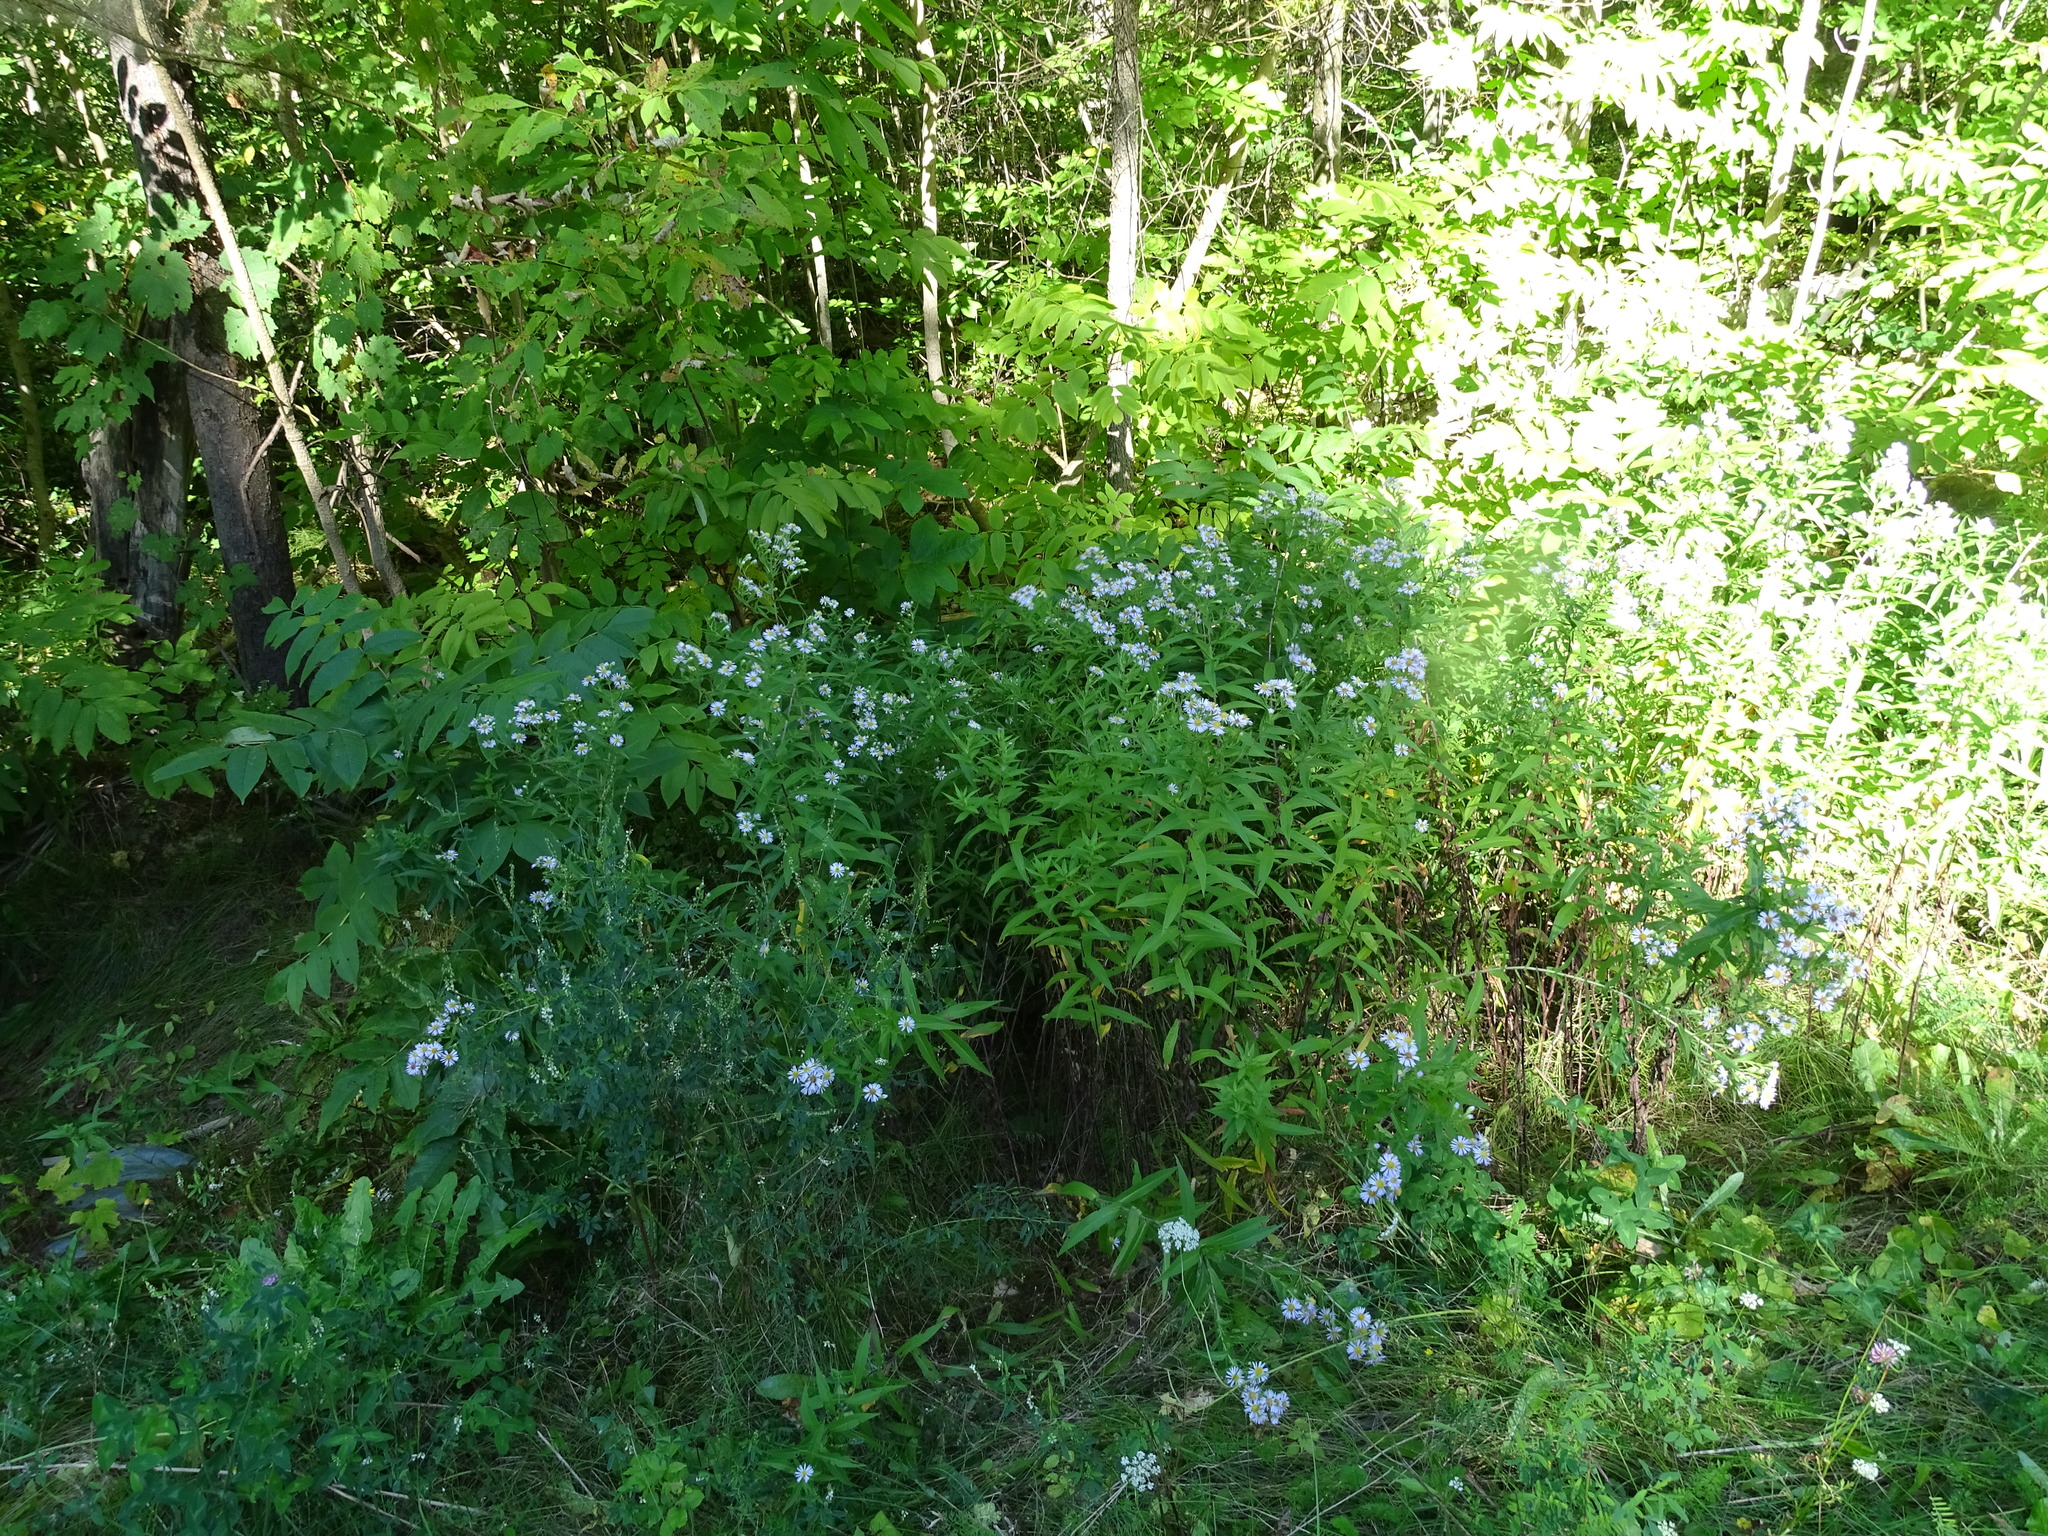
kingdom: Plantae
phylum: Tracheophyta
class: Magnoliopsida
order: Asterales
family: Asteraceae
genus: Symphyotrichum
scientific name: Symphyotrichum firmum
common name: Shining aster
